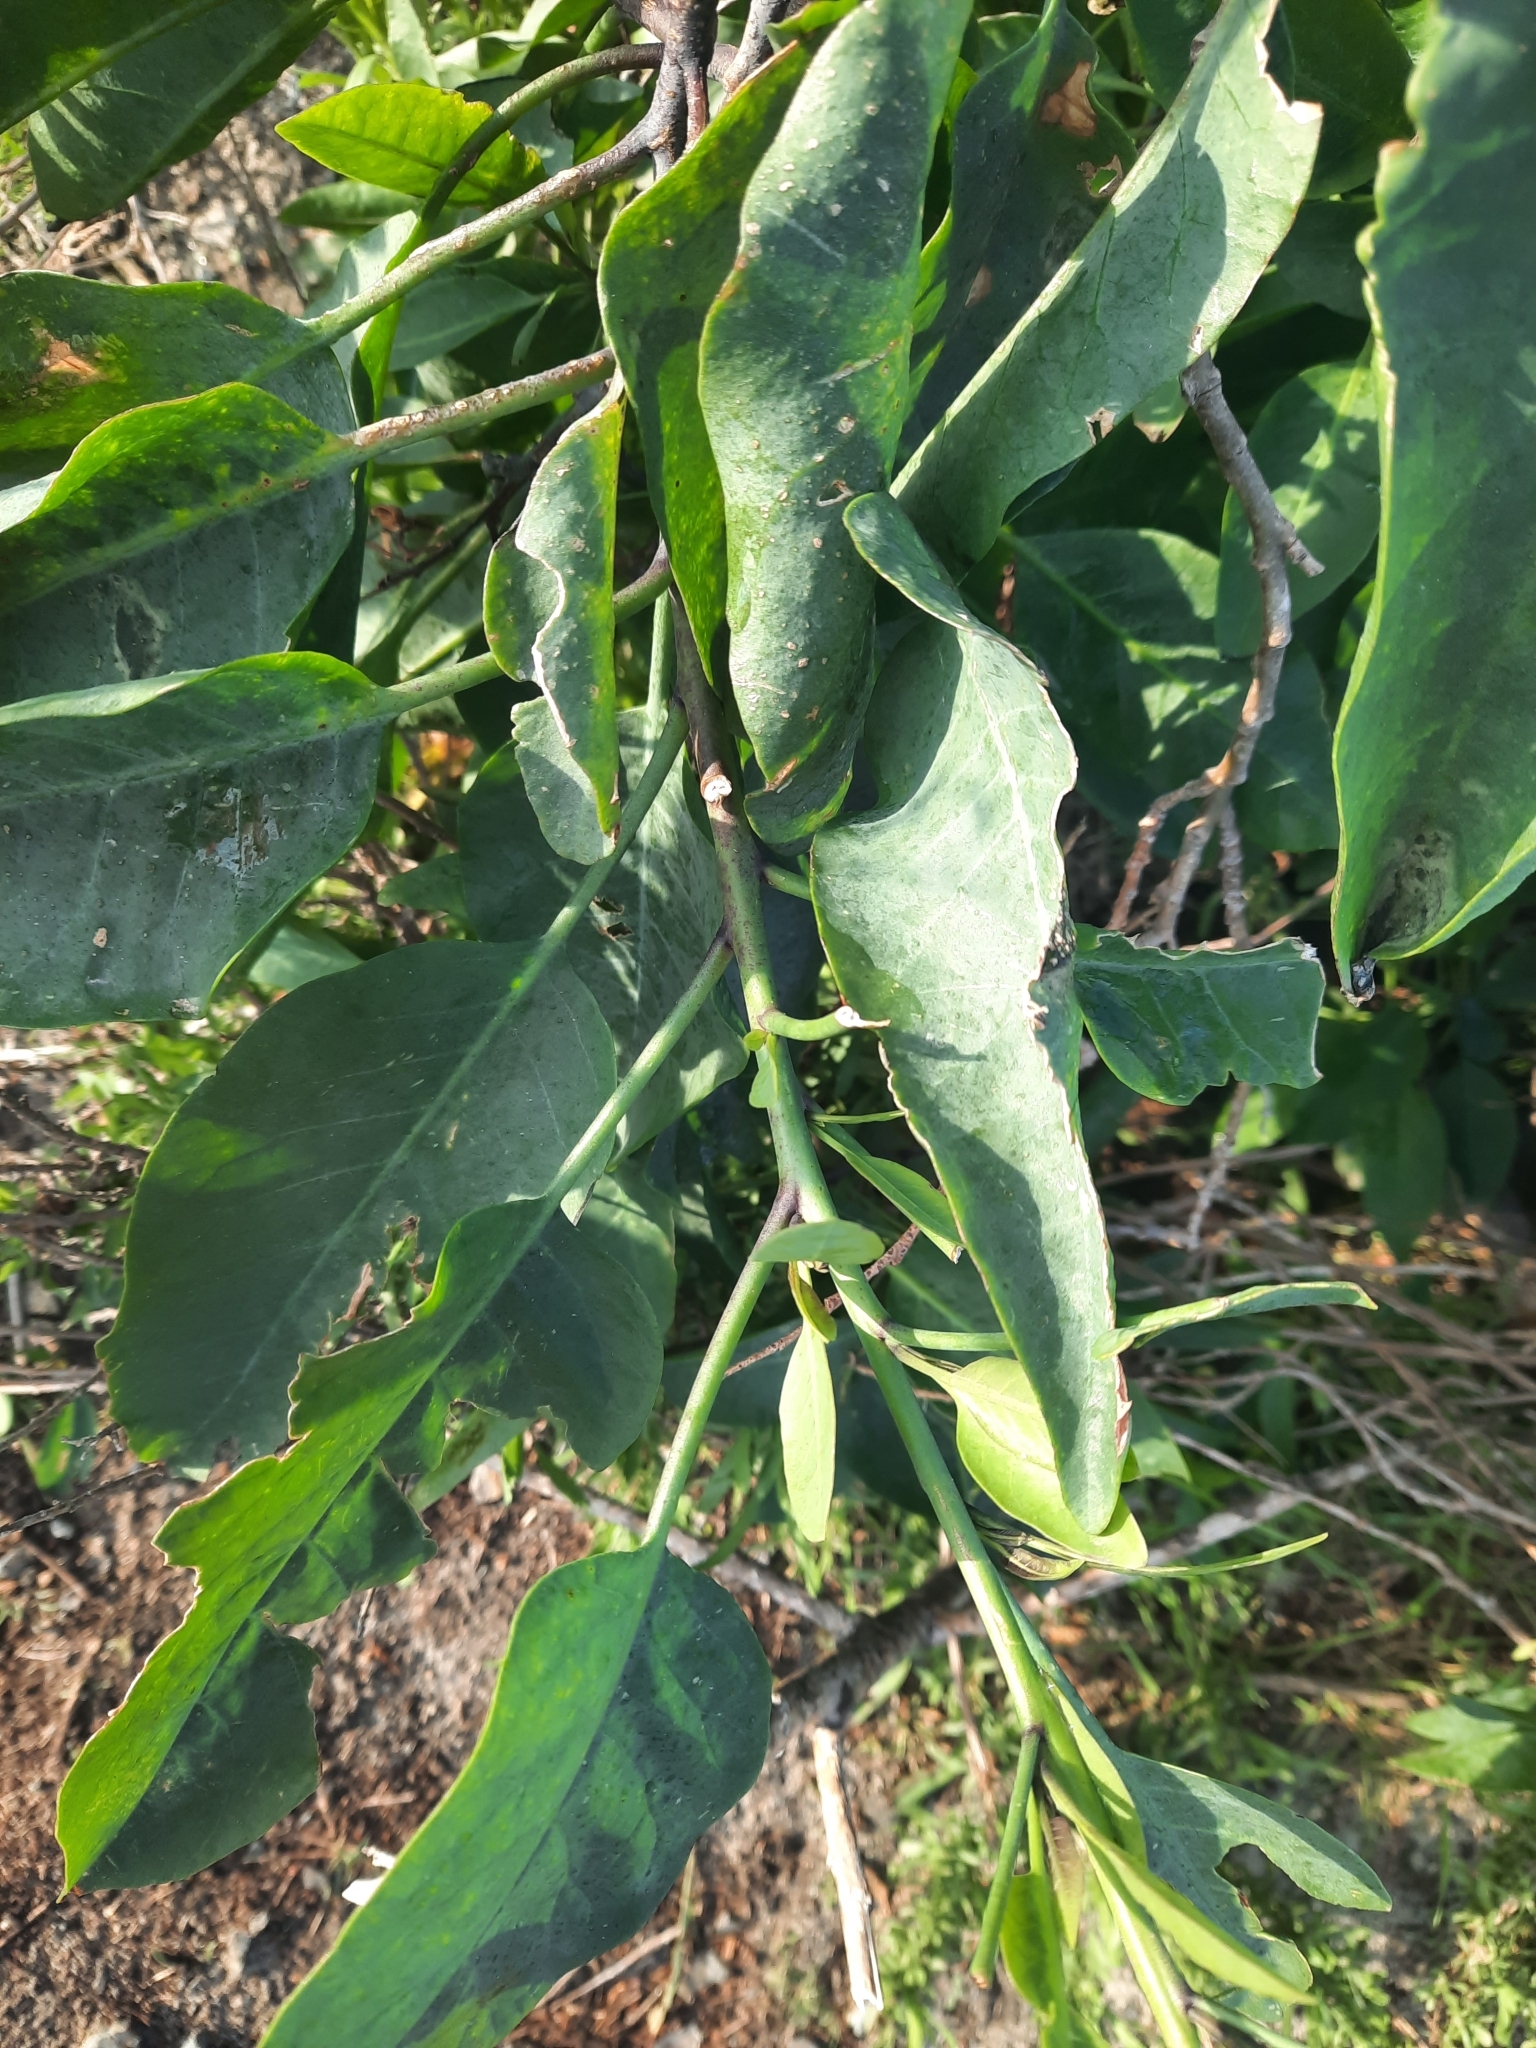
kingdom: Plantae
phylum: Tracheophyta
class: Magnoliopsida
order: Solanales
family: Solanaceae
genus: Nicotiana
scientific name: Nicotiana glauca
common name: Tree tobacco
